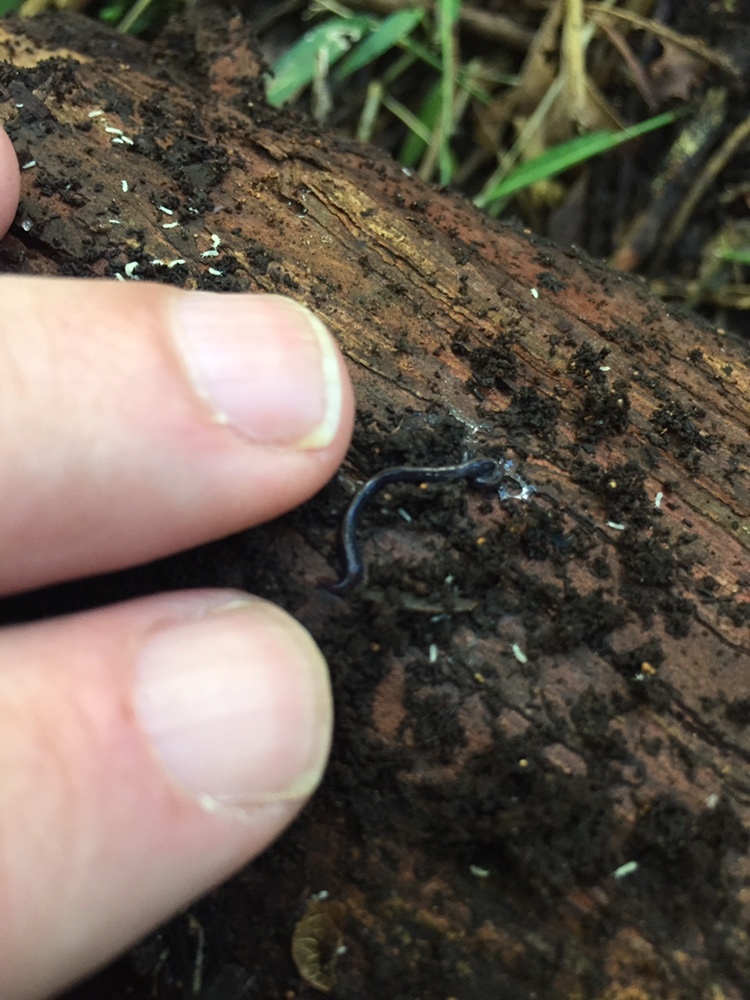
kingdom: Animalia
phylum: Platyhelminthes
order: Tricladida
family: Geoplanidae
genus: Caenoplana
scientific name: Caenoplana coerulea
